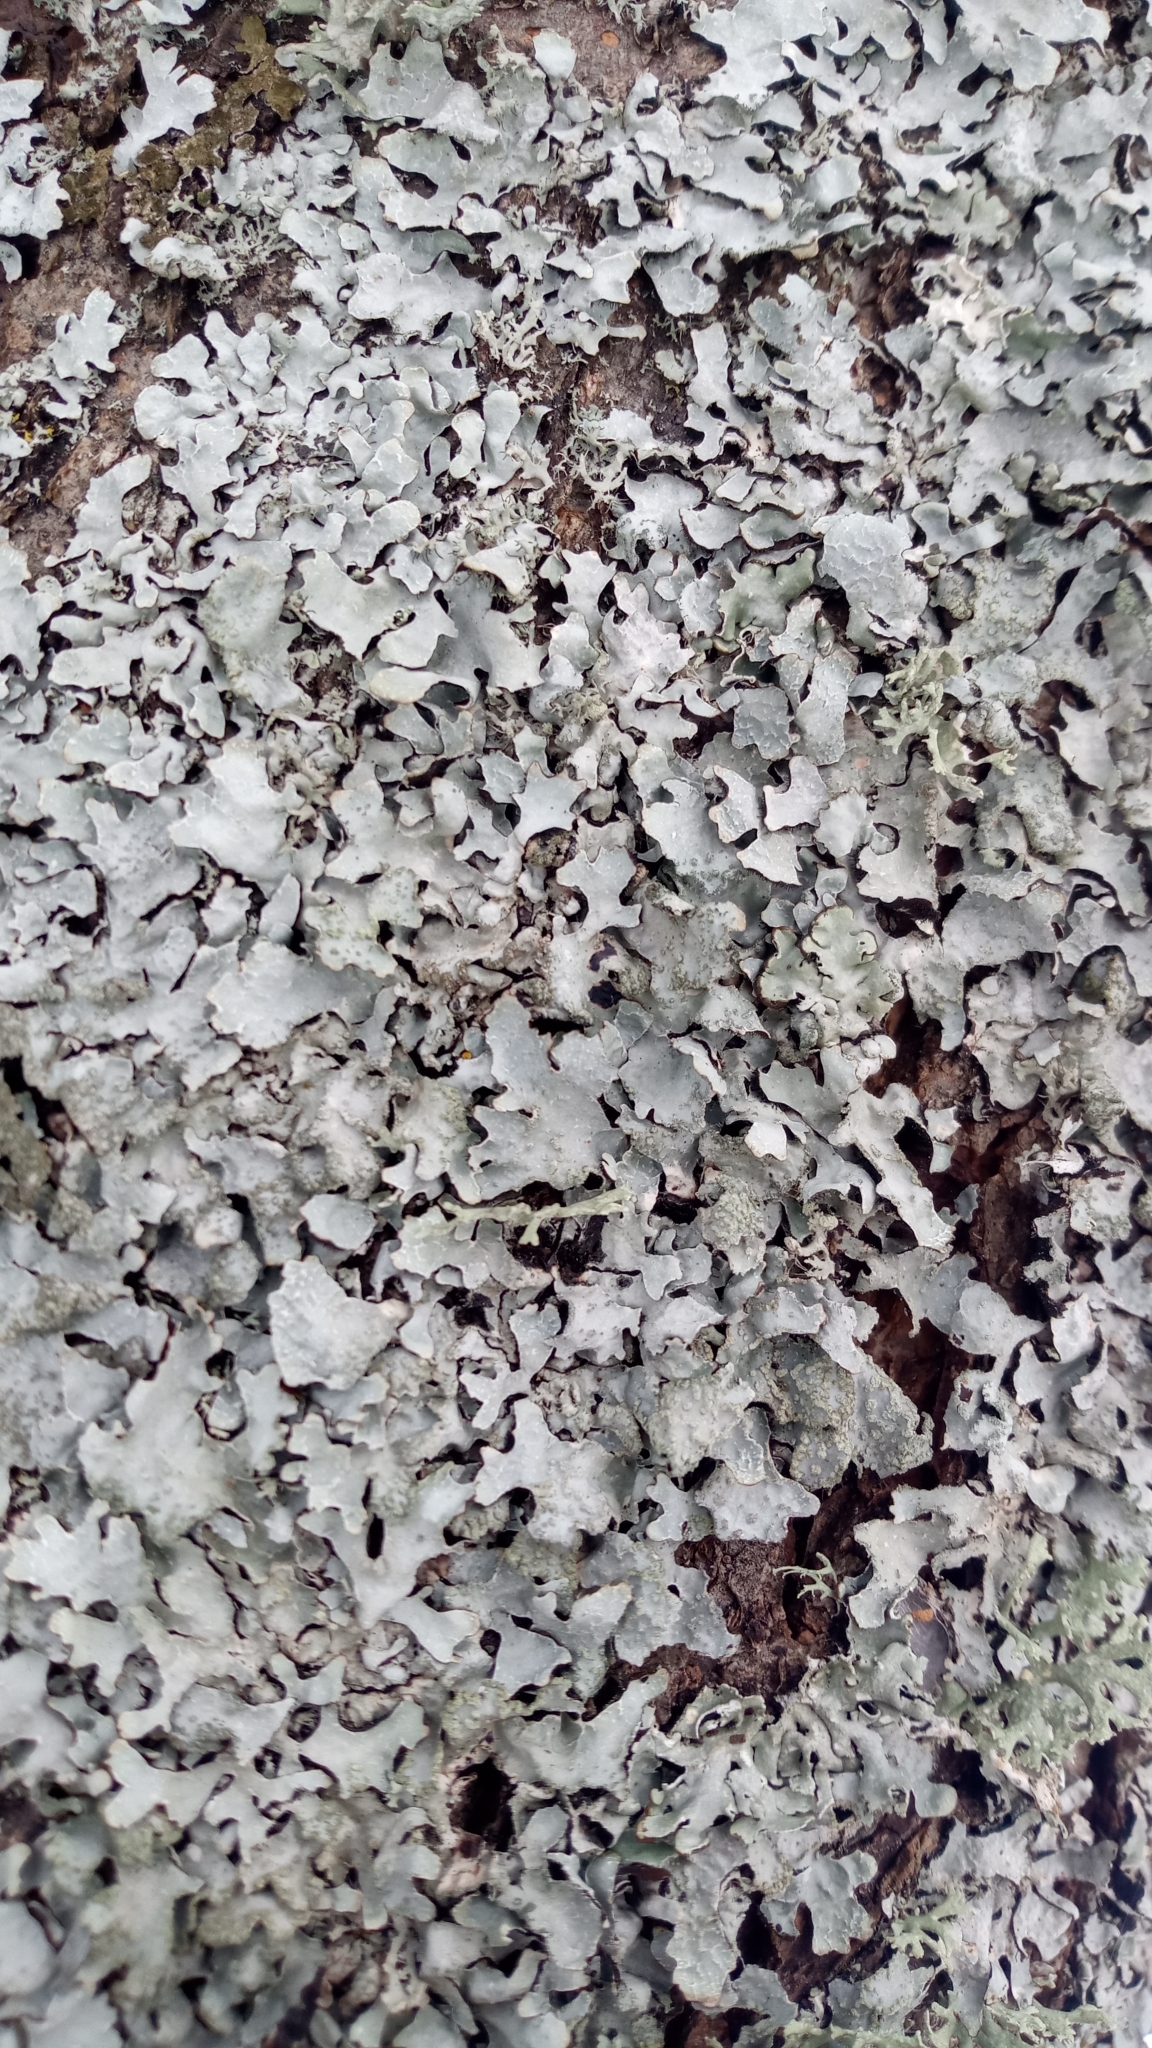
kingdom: Fungi
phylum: Ascomycota
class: Lecanoromycetes
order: Lecanorales
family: Parmeliaceae
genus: Parmelia
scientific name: Parmelia sulcata
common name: Netted shield lichen
